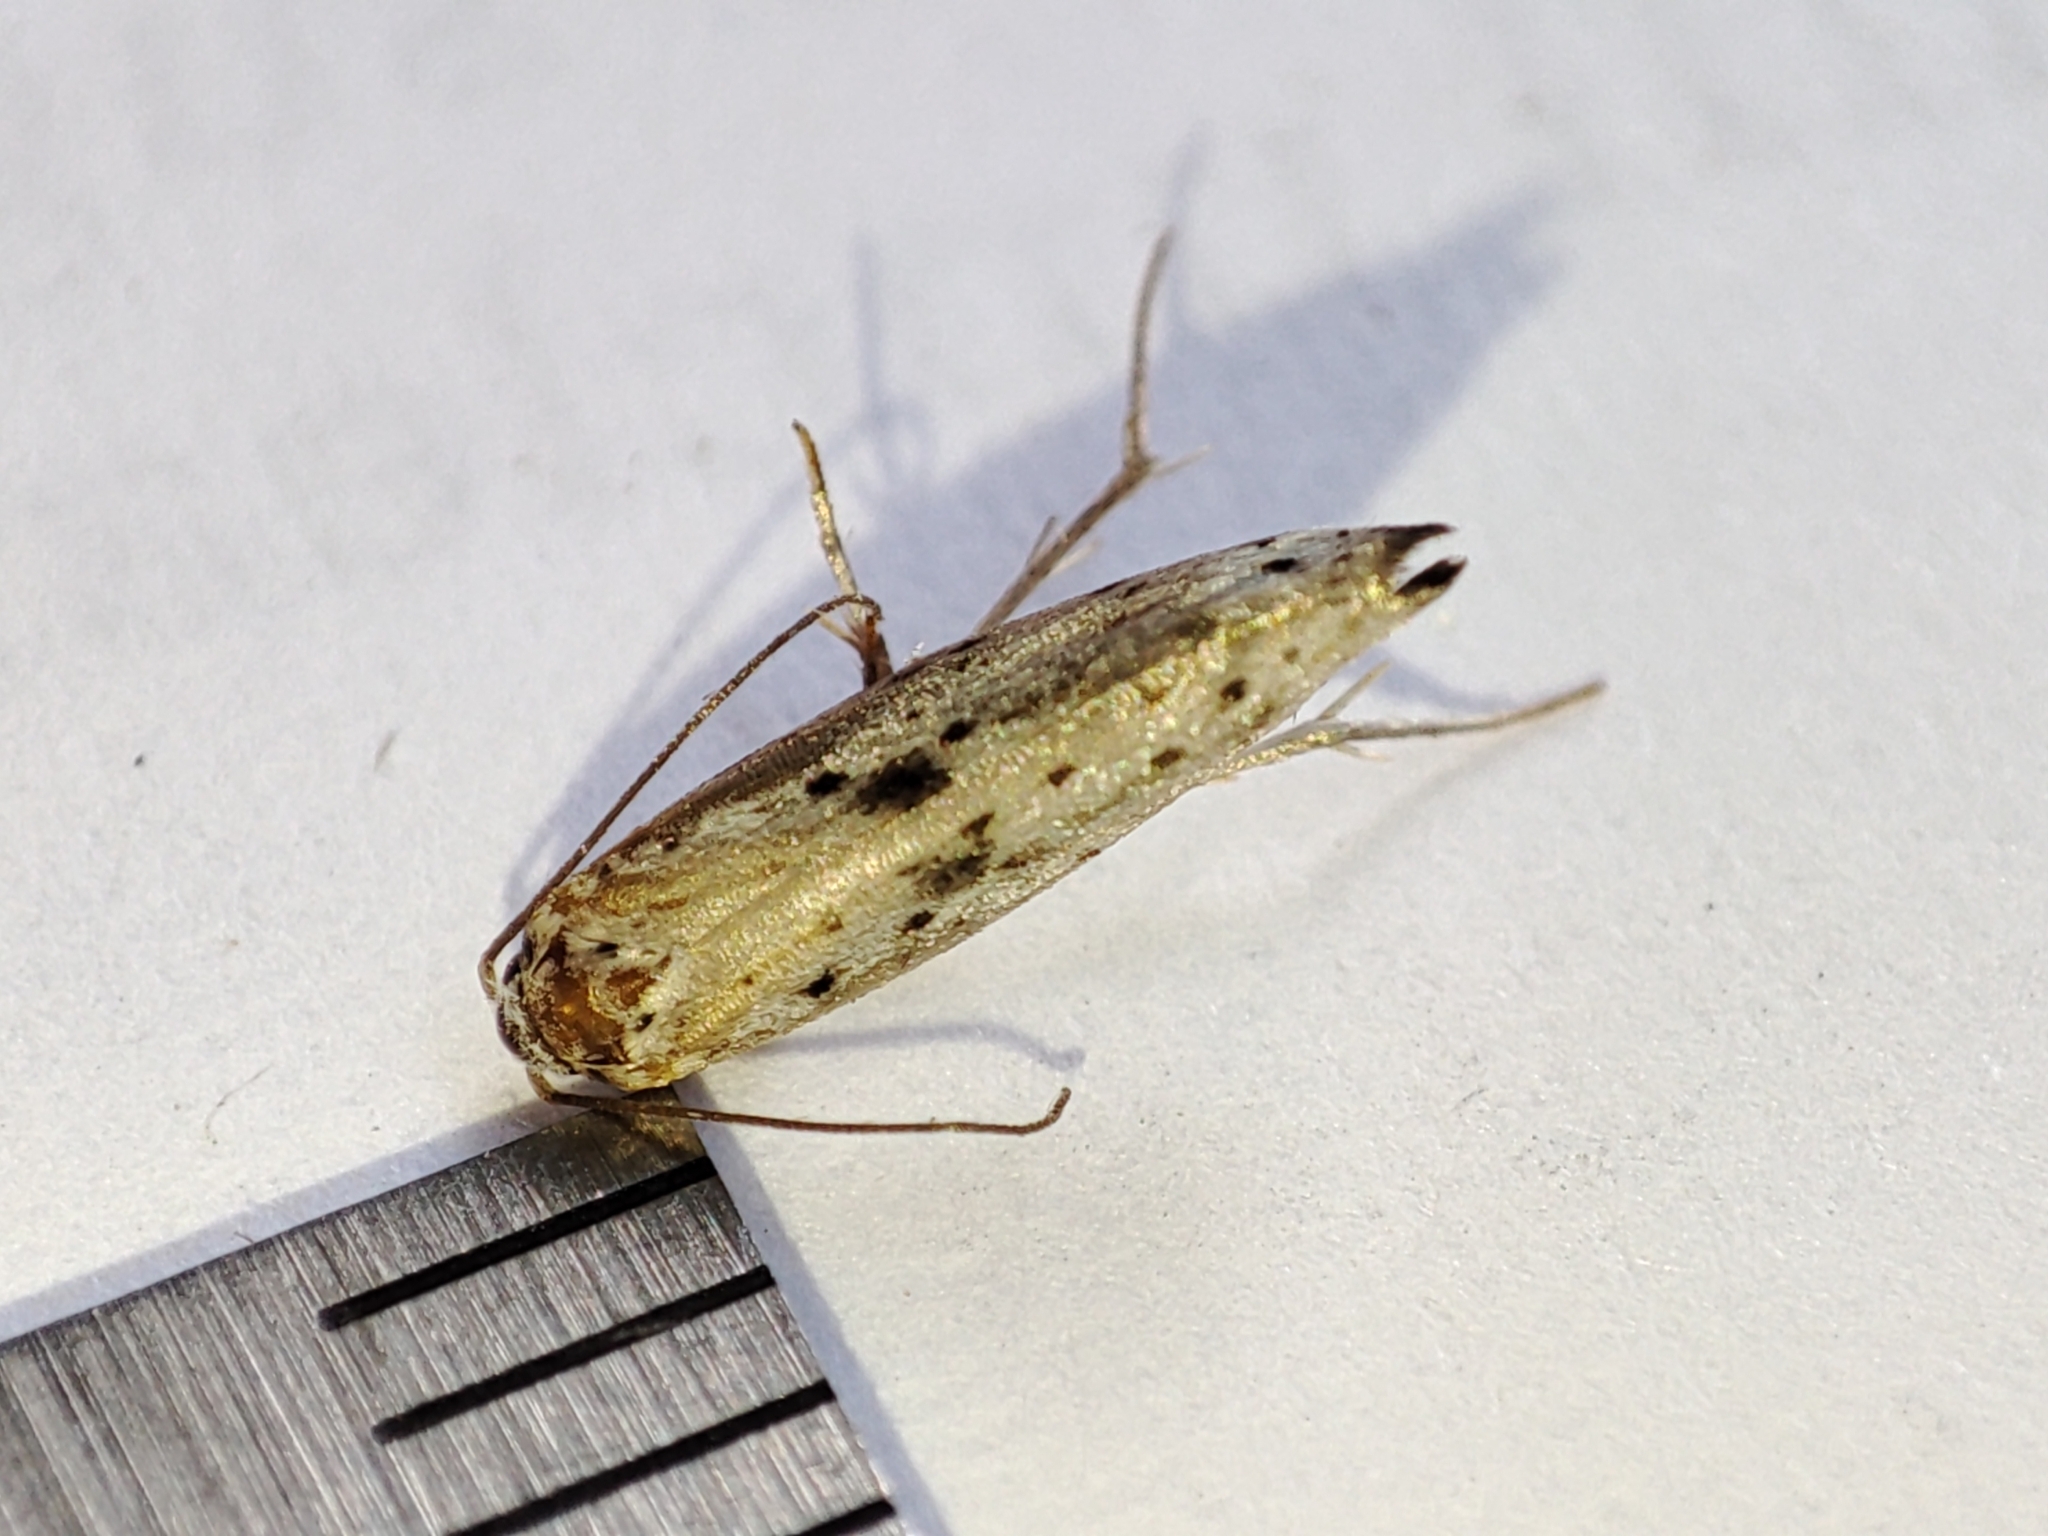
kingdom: Animalia
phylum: Arthropoda
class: Insecta
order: Lepidoptera
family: Yponomeutidae
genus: Yponomeuta
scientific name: Yponomeuta plumbella
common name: Black-tipped ermine
